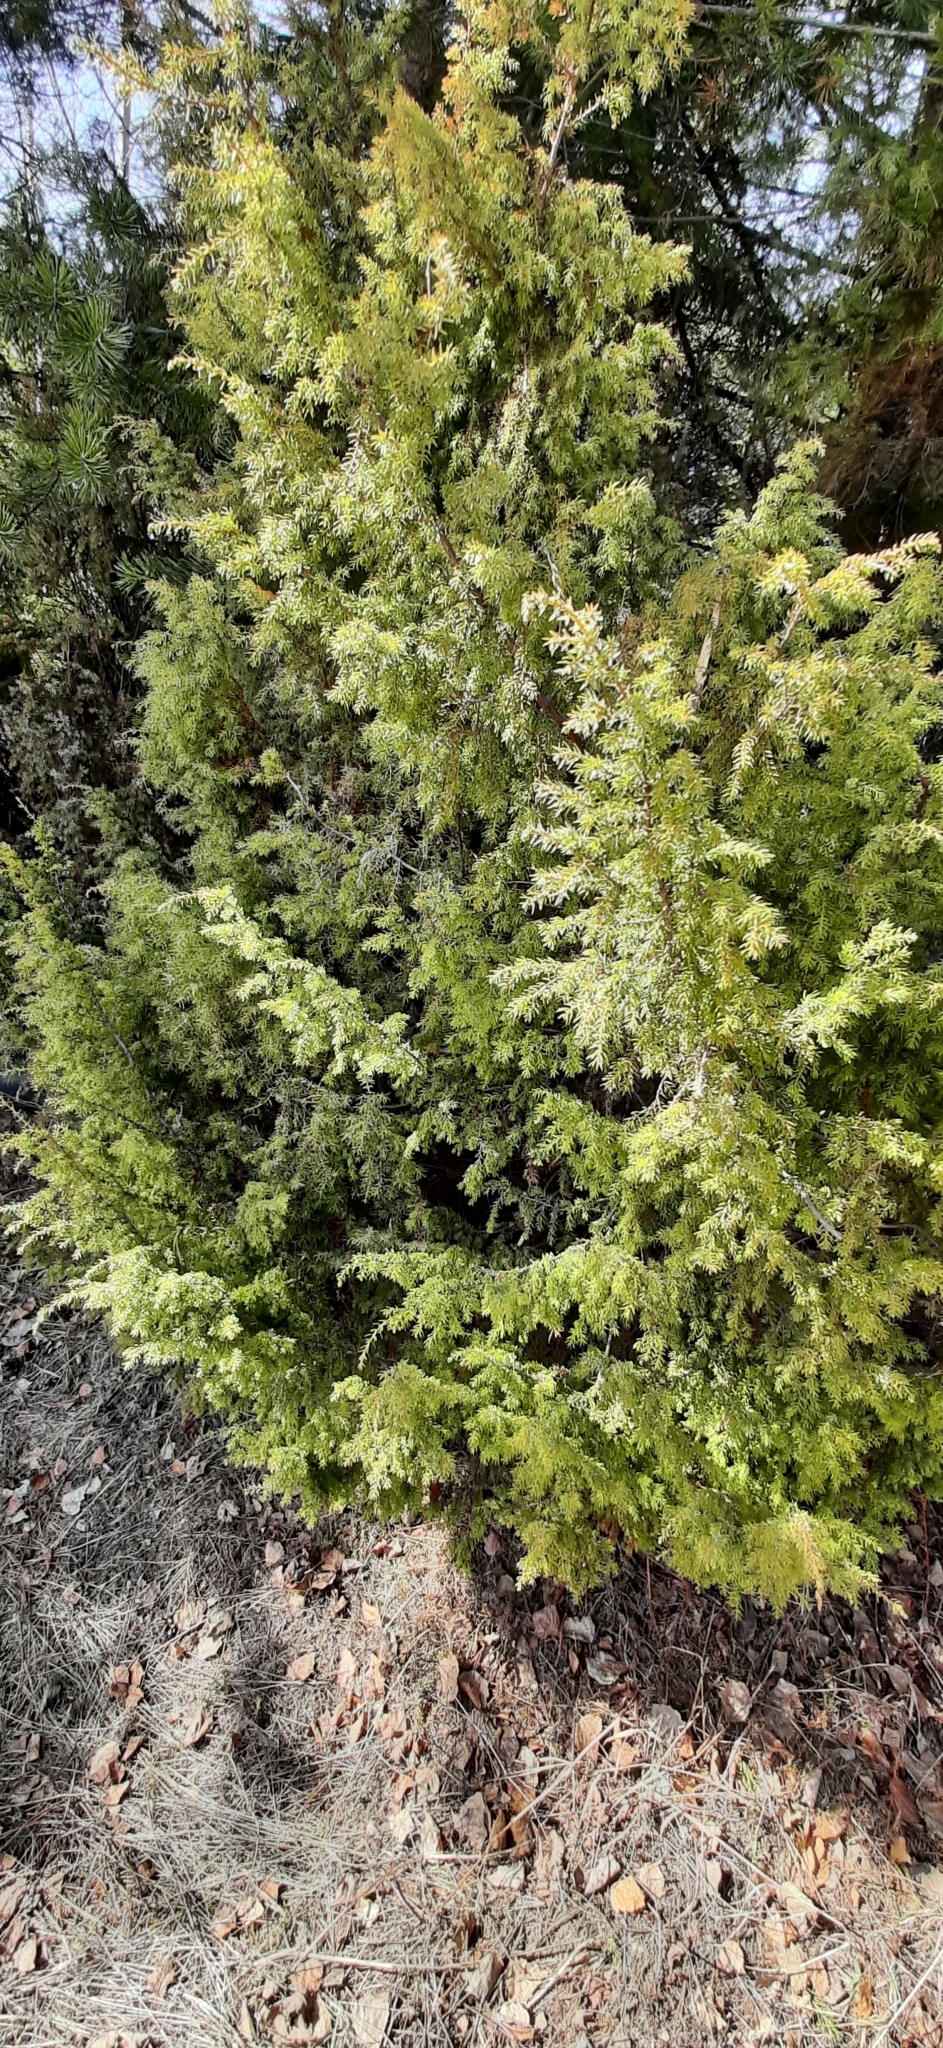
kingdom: Plantae
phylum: Tracheophyta
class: Pinopsida
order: Pinales
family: Cupressaceae
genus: Juniperus
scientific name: Juniperus communis
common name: Common juniper
